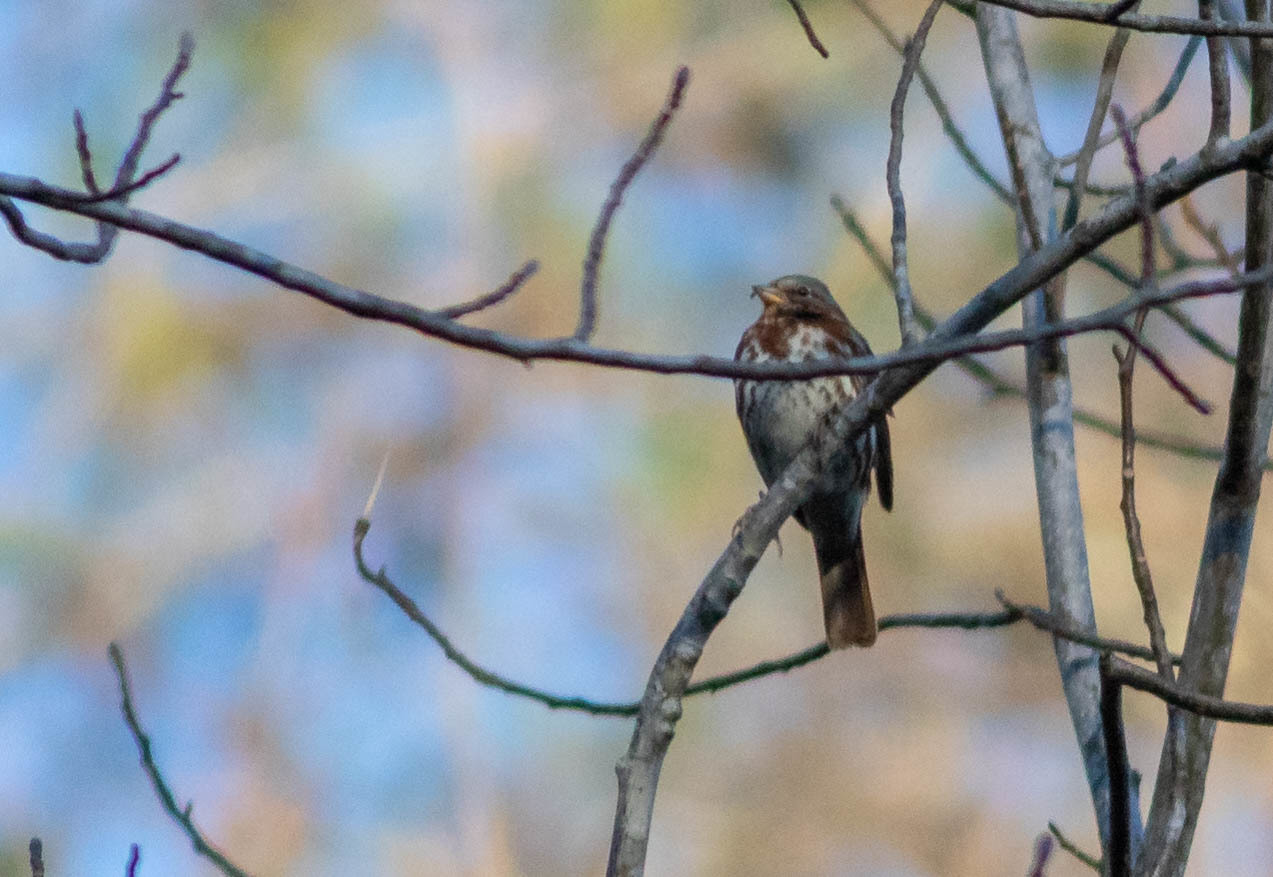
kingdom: Animalia
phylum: Chordata
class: Aves
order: Passeriformes
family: Passerellidae
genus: Passerella
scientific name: Passerella iliaca
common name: Fox sparrow
